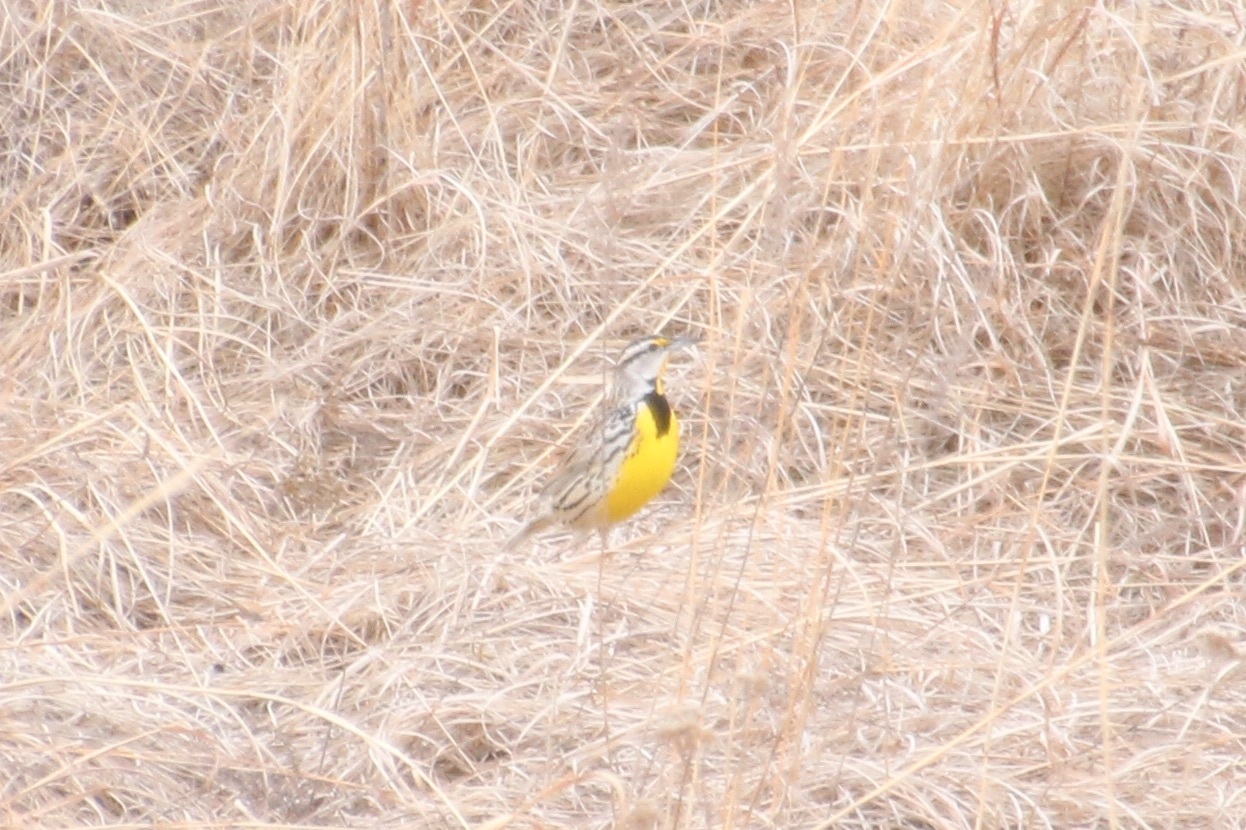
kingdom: Animalia
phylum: Chordata
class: Aves
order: Passeriformes
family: Icteridae
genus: Sturnella
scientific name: Sturnella magna
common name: Eastern meadowlark
